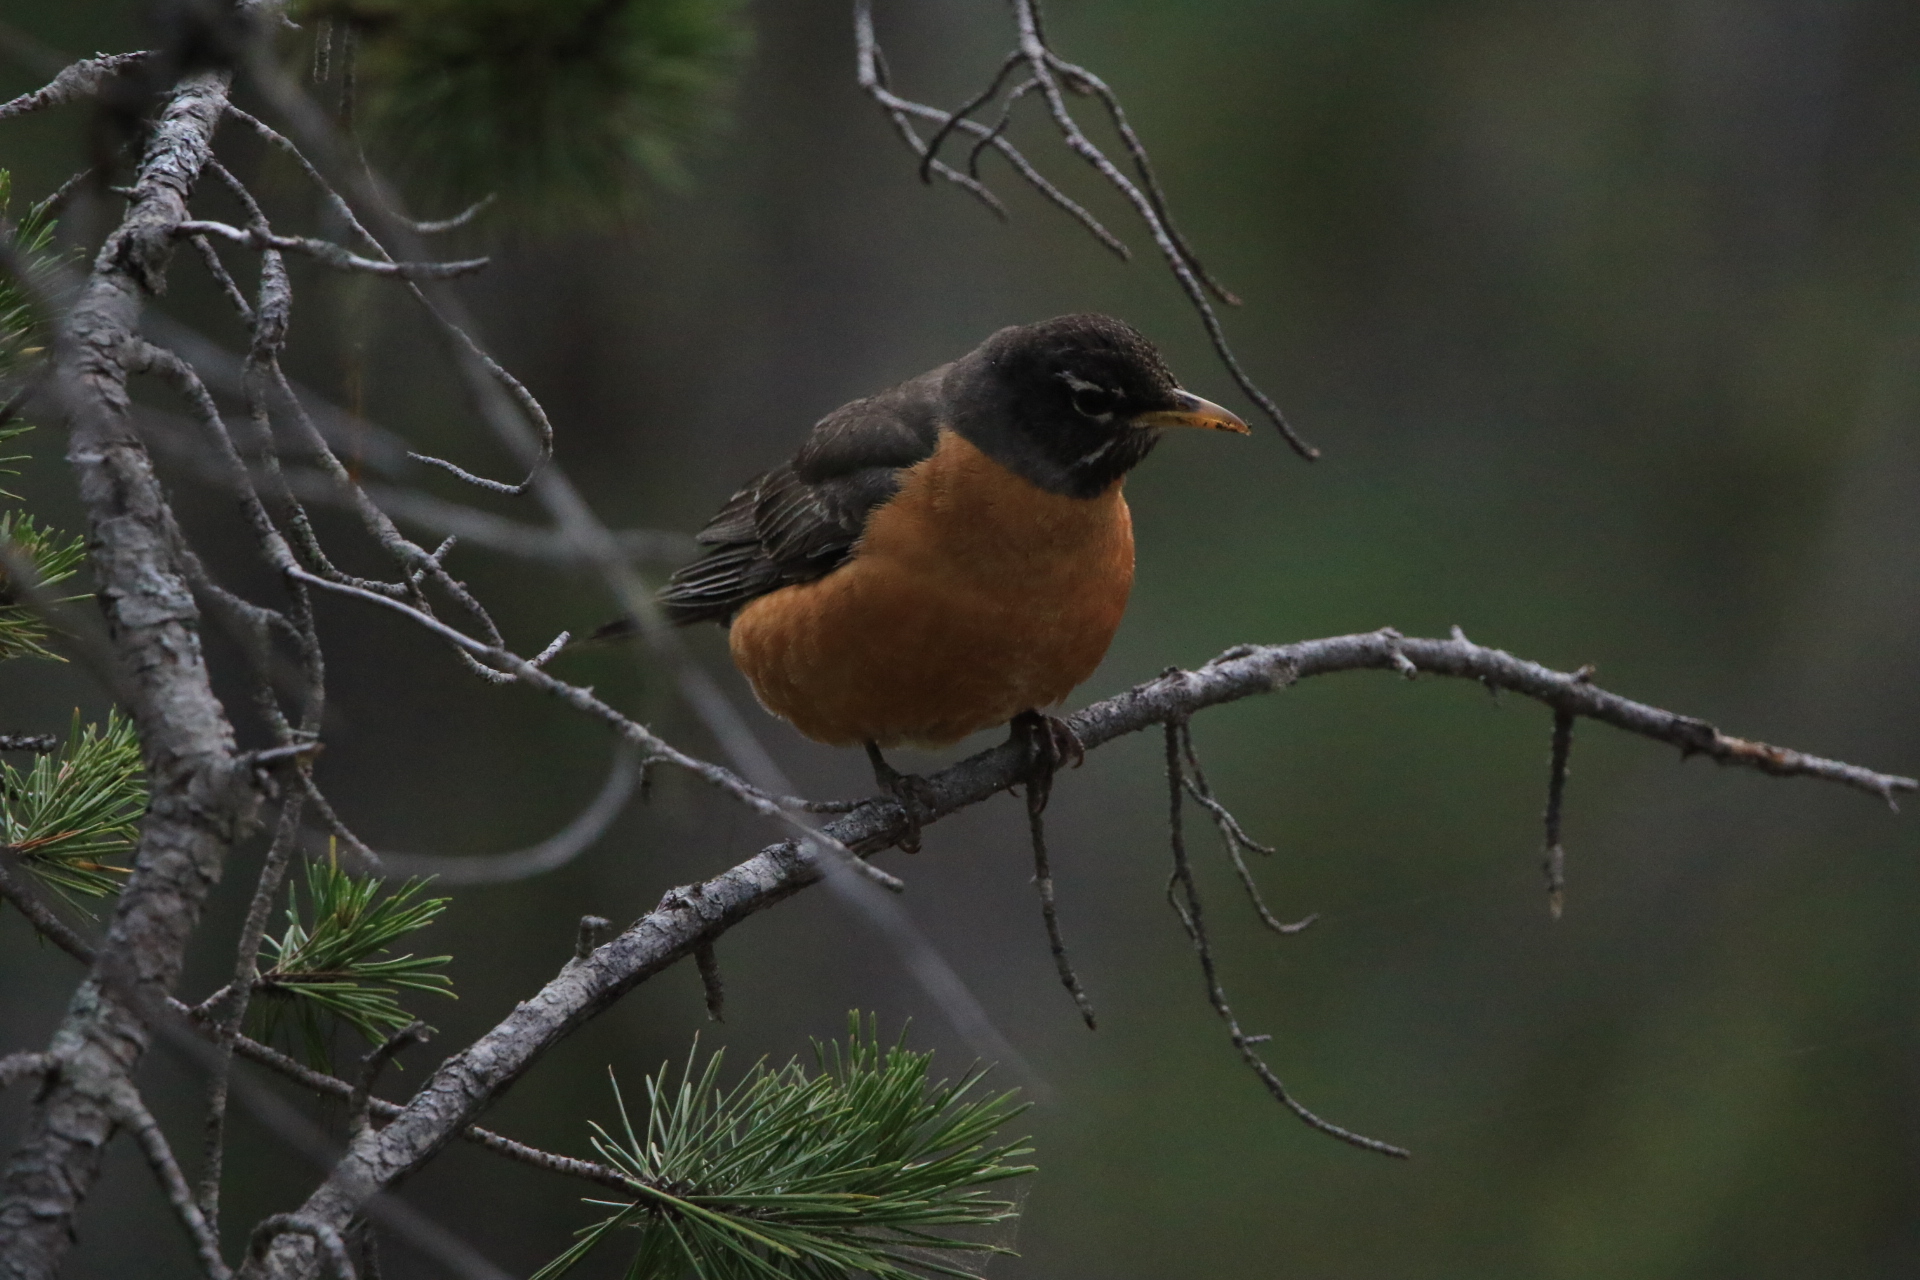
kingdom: Animalia
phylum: Chordata
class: Aves
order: Passeriformes
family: Turdidae
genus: Turdus
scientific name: Turdus migratorius
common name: American robin
